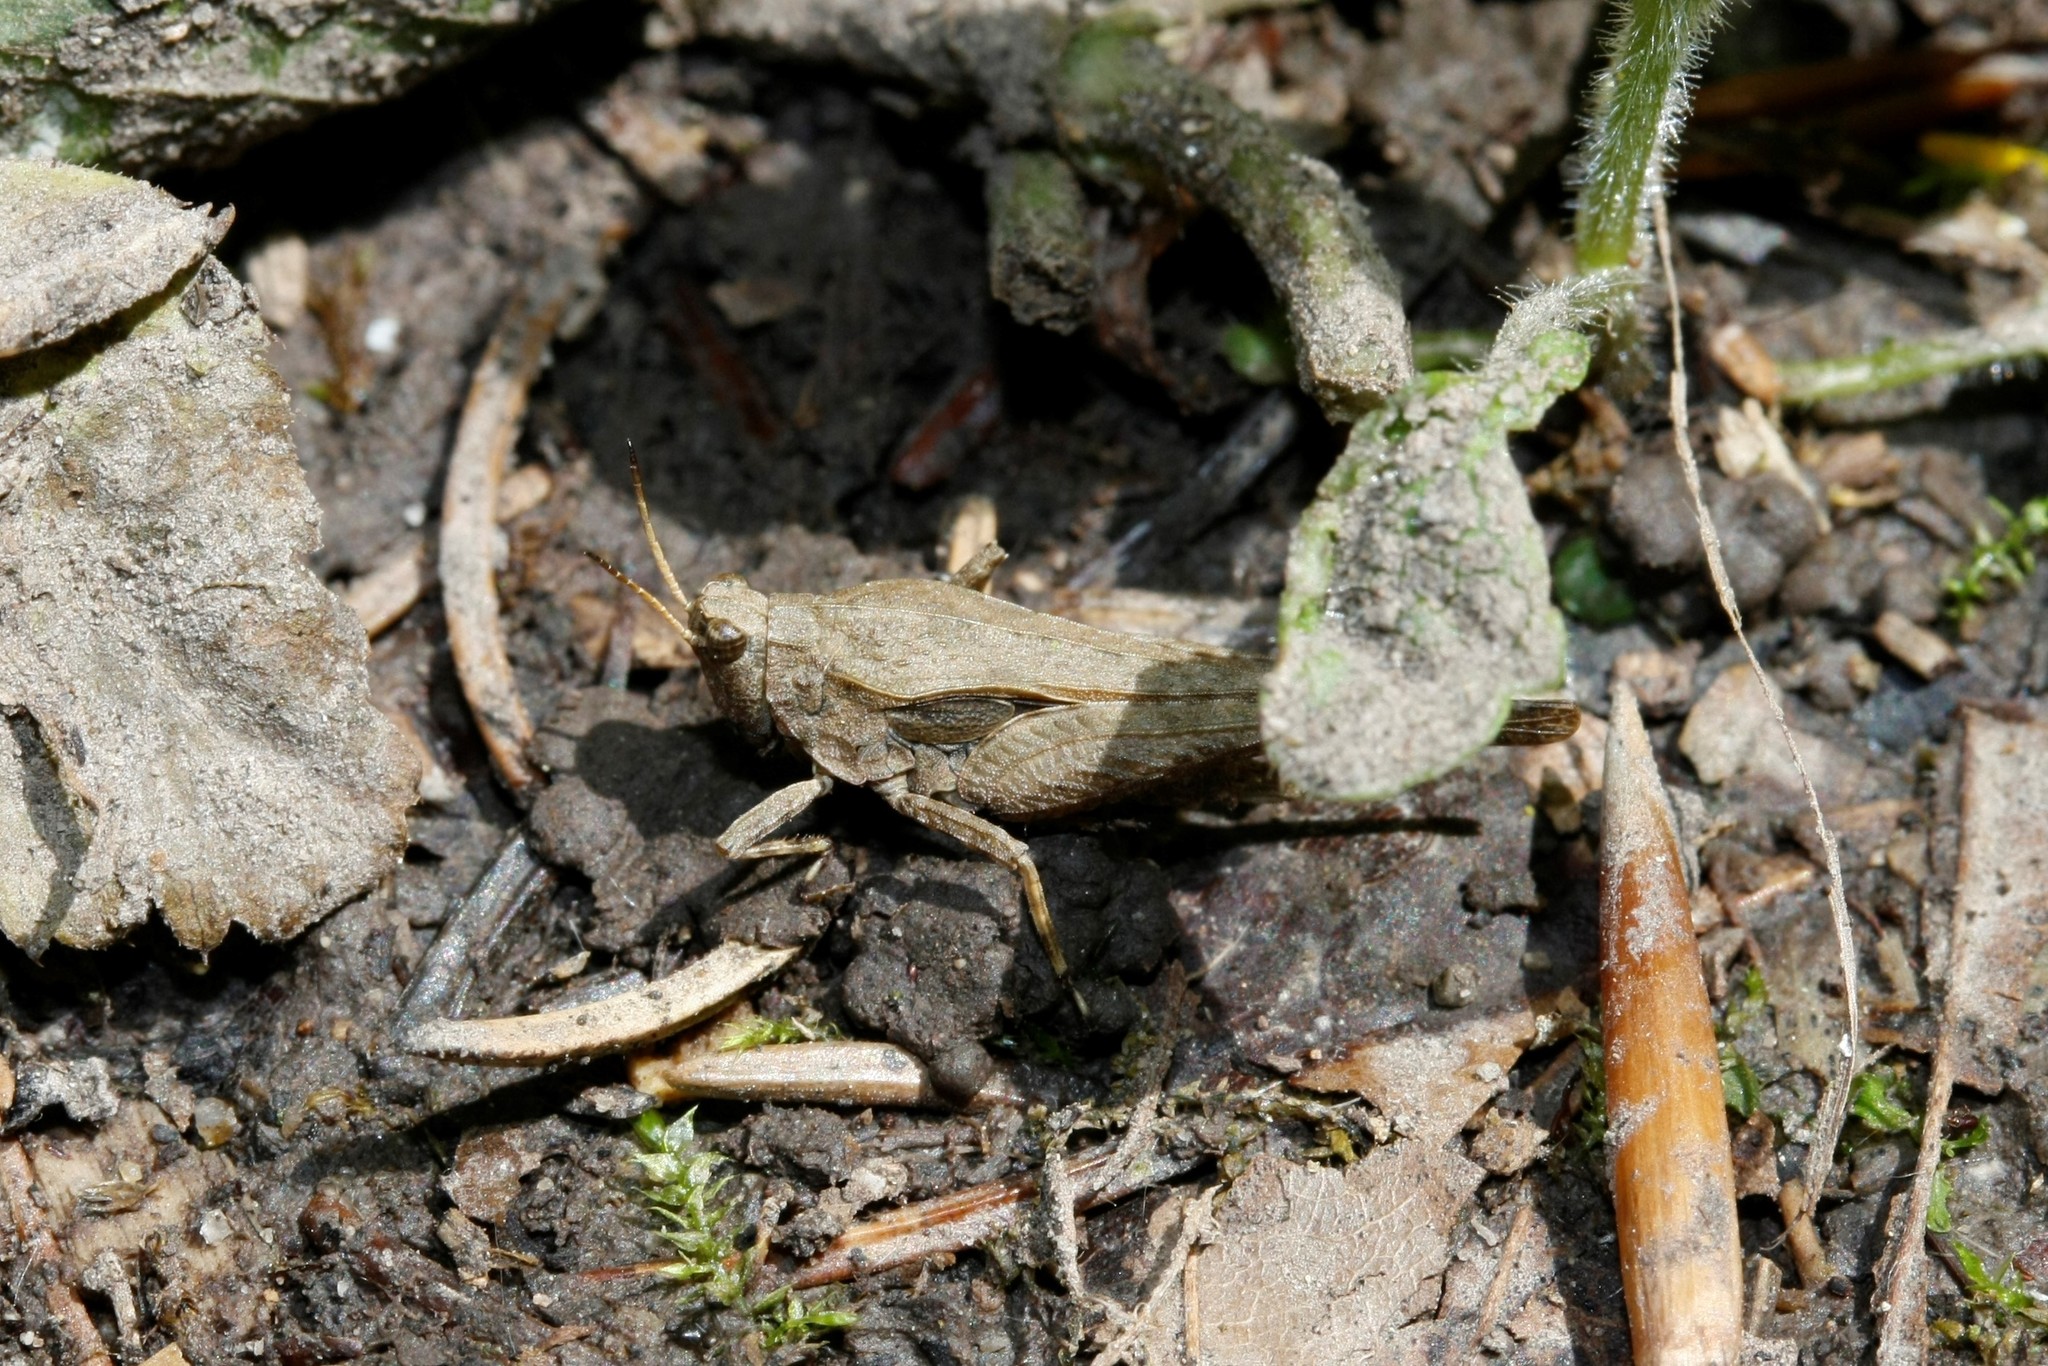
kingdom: Animalia
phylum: Arthropoda
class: Insecta
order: Orthoptera
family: Tetrigidae
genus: Tetrix
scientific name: Tetrix subulata
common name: Slender ground-hopper
